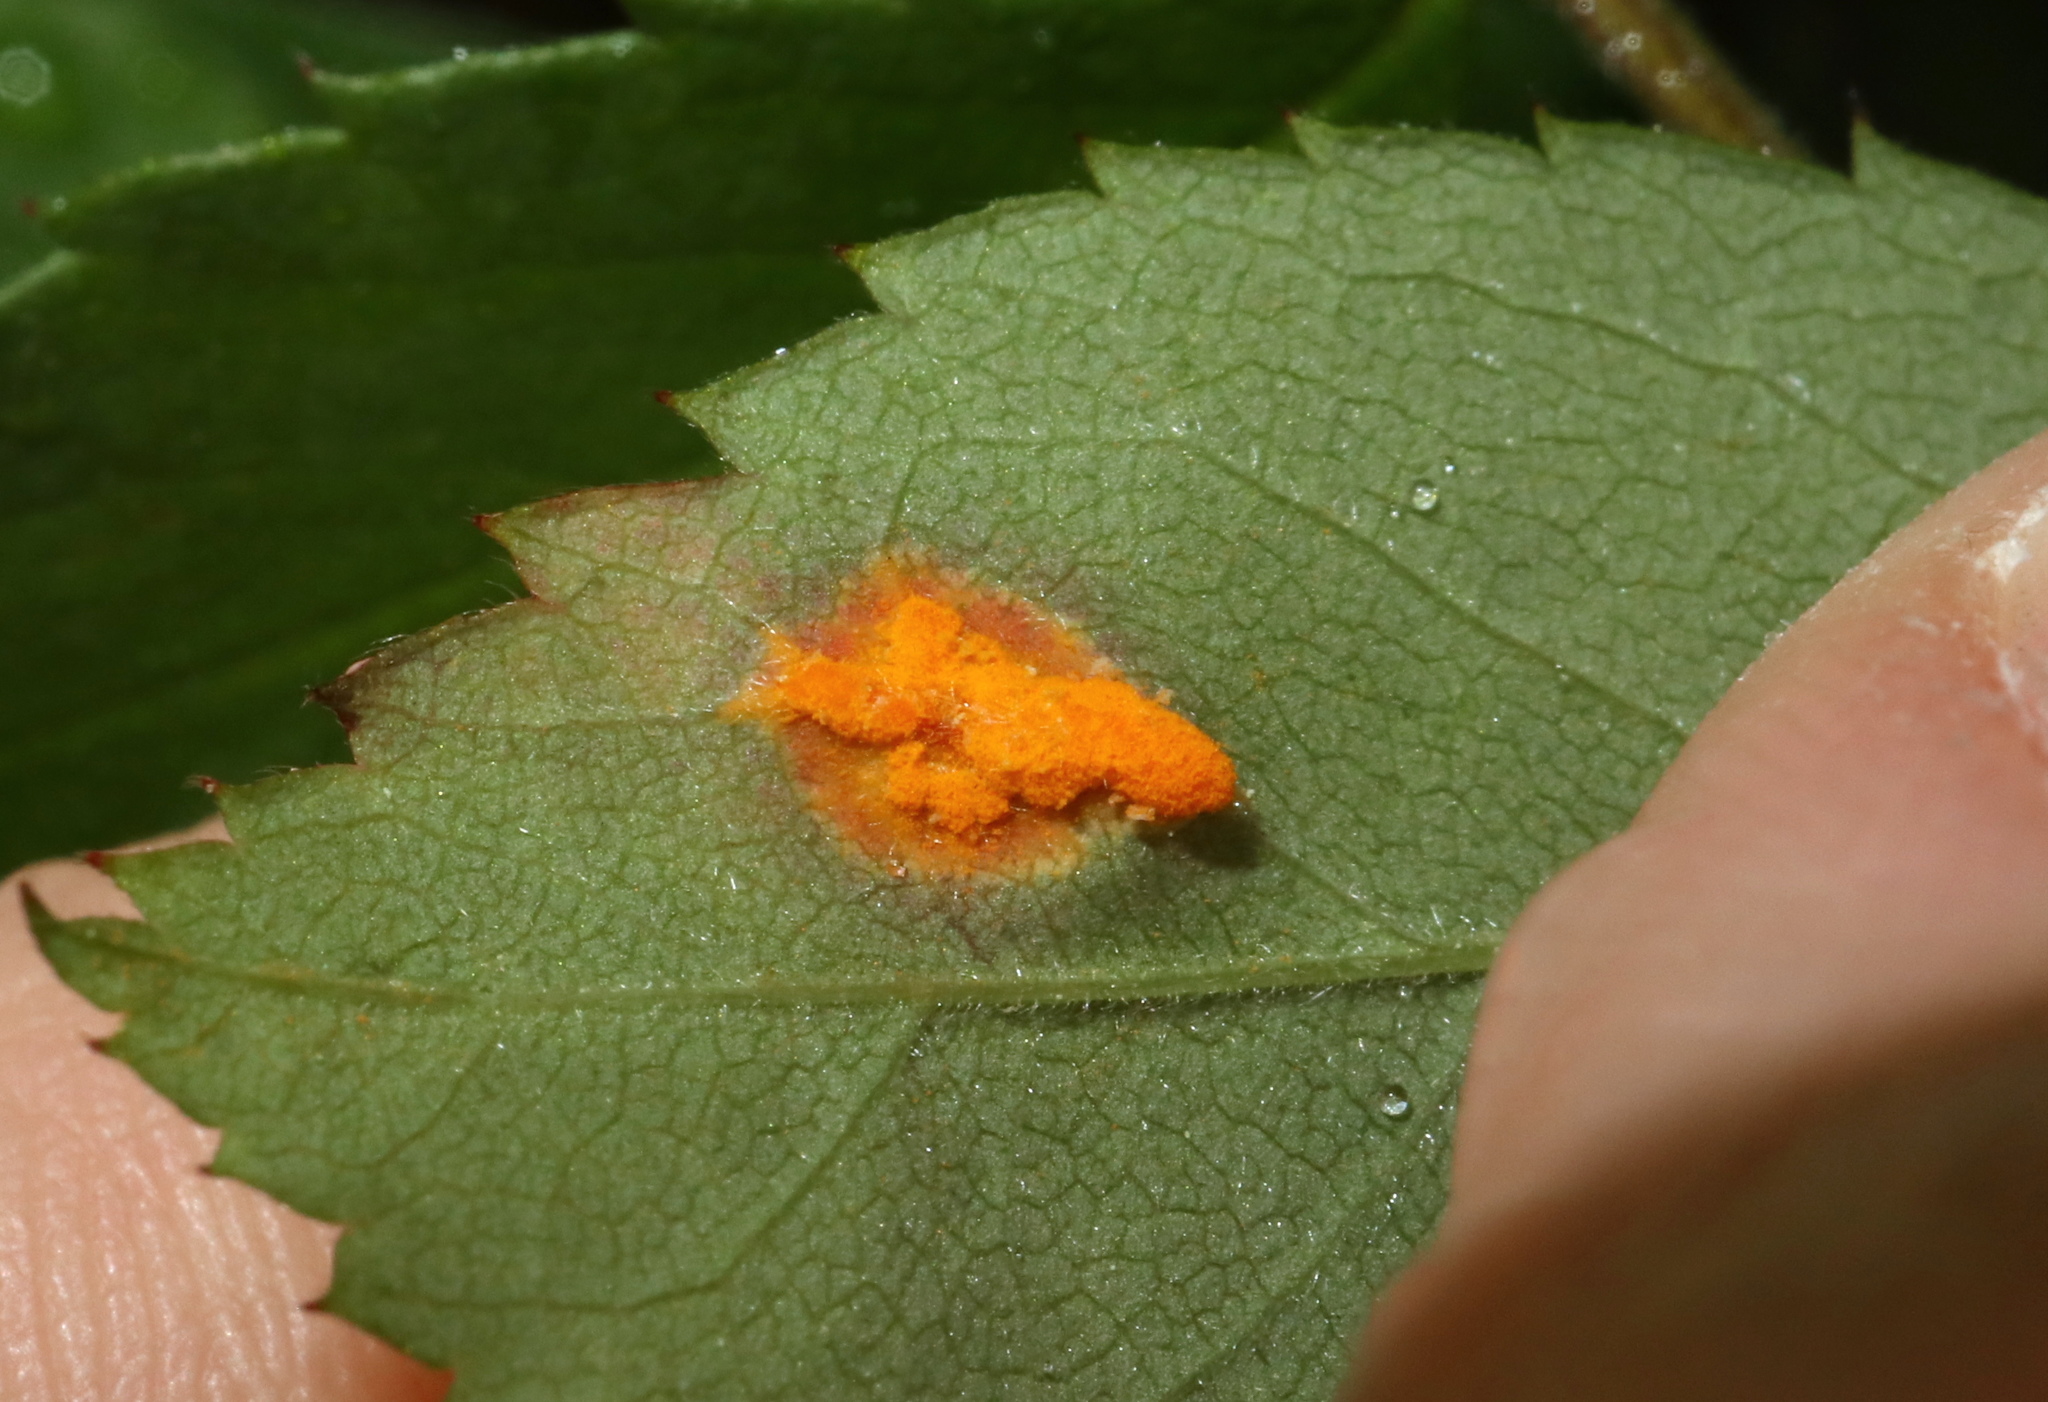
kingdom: Fungi
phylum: Basidiomycota
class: Pucciniomycetes
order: Pucciniales
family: Phragmidiaceae
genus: Phragmidium
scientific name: Phragmidium rosae-multiflorae
